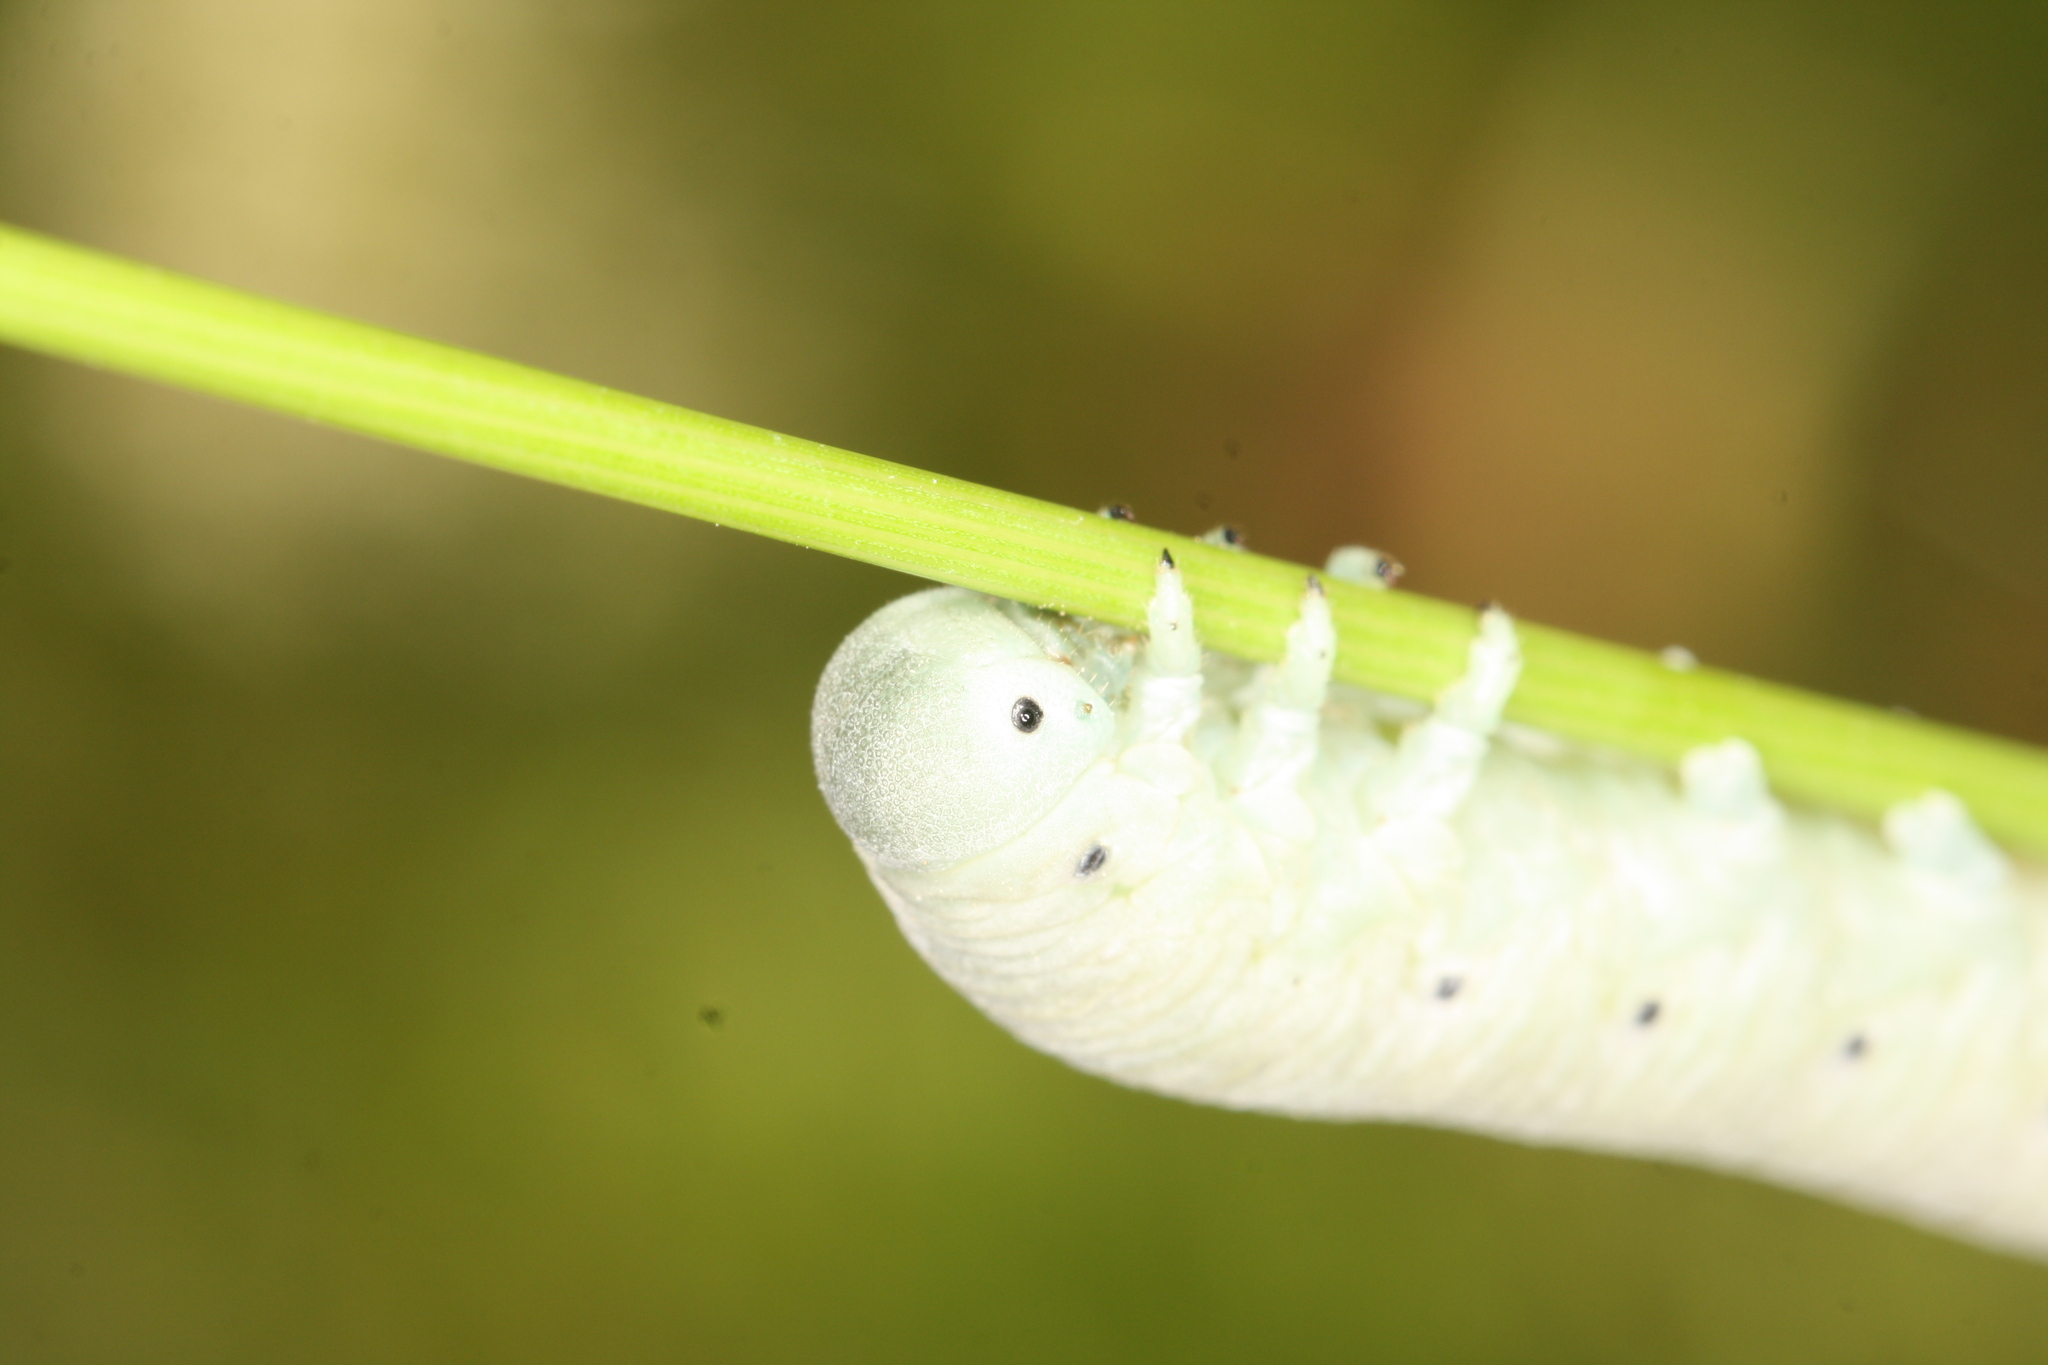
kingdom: Animalia
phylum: Arthropoda
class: Insecta
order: Hymenoptera
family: Cimbicidae
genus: Pseudoclavellaria
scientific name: Pseudoclavellaria amerinae
